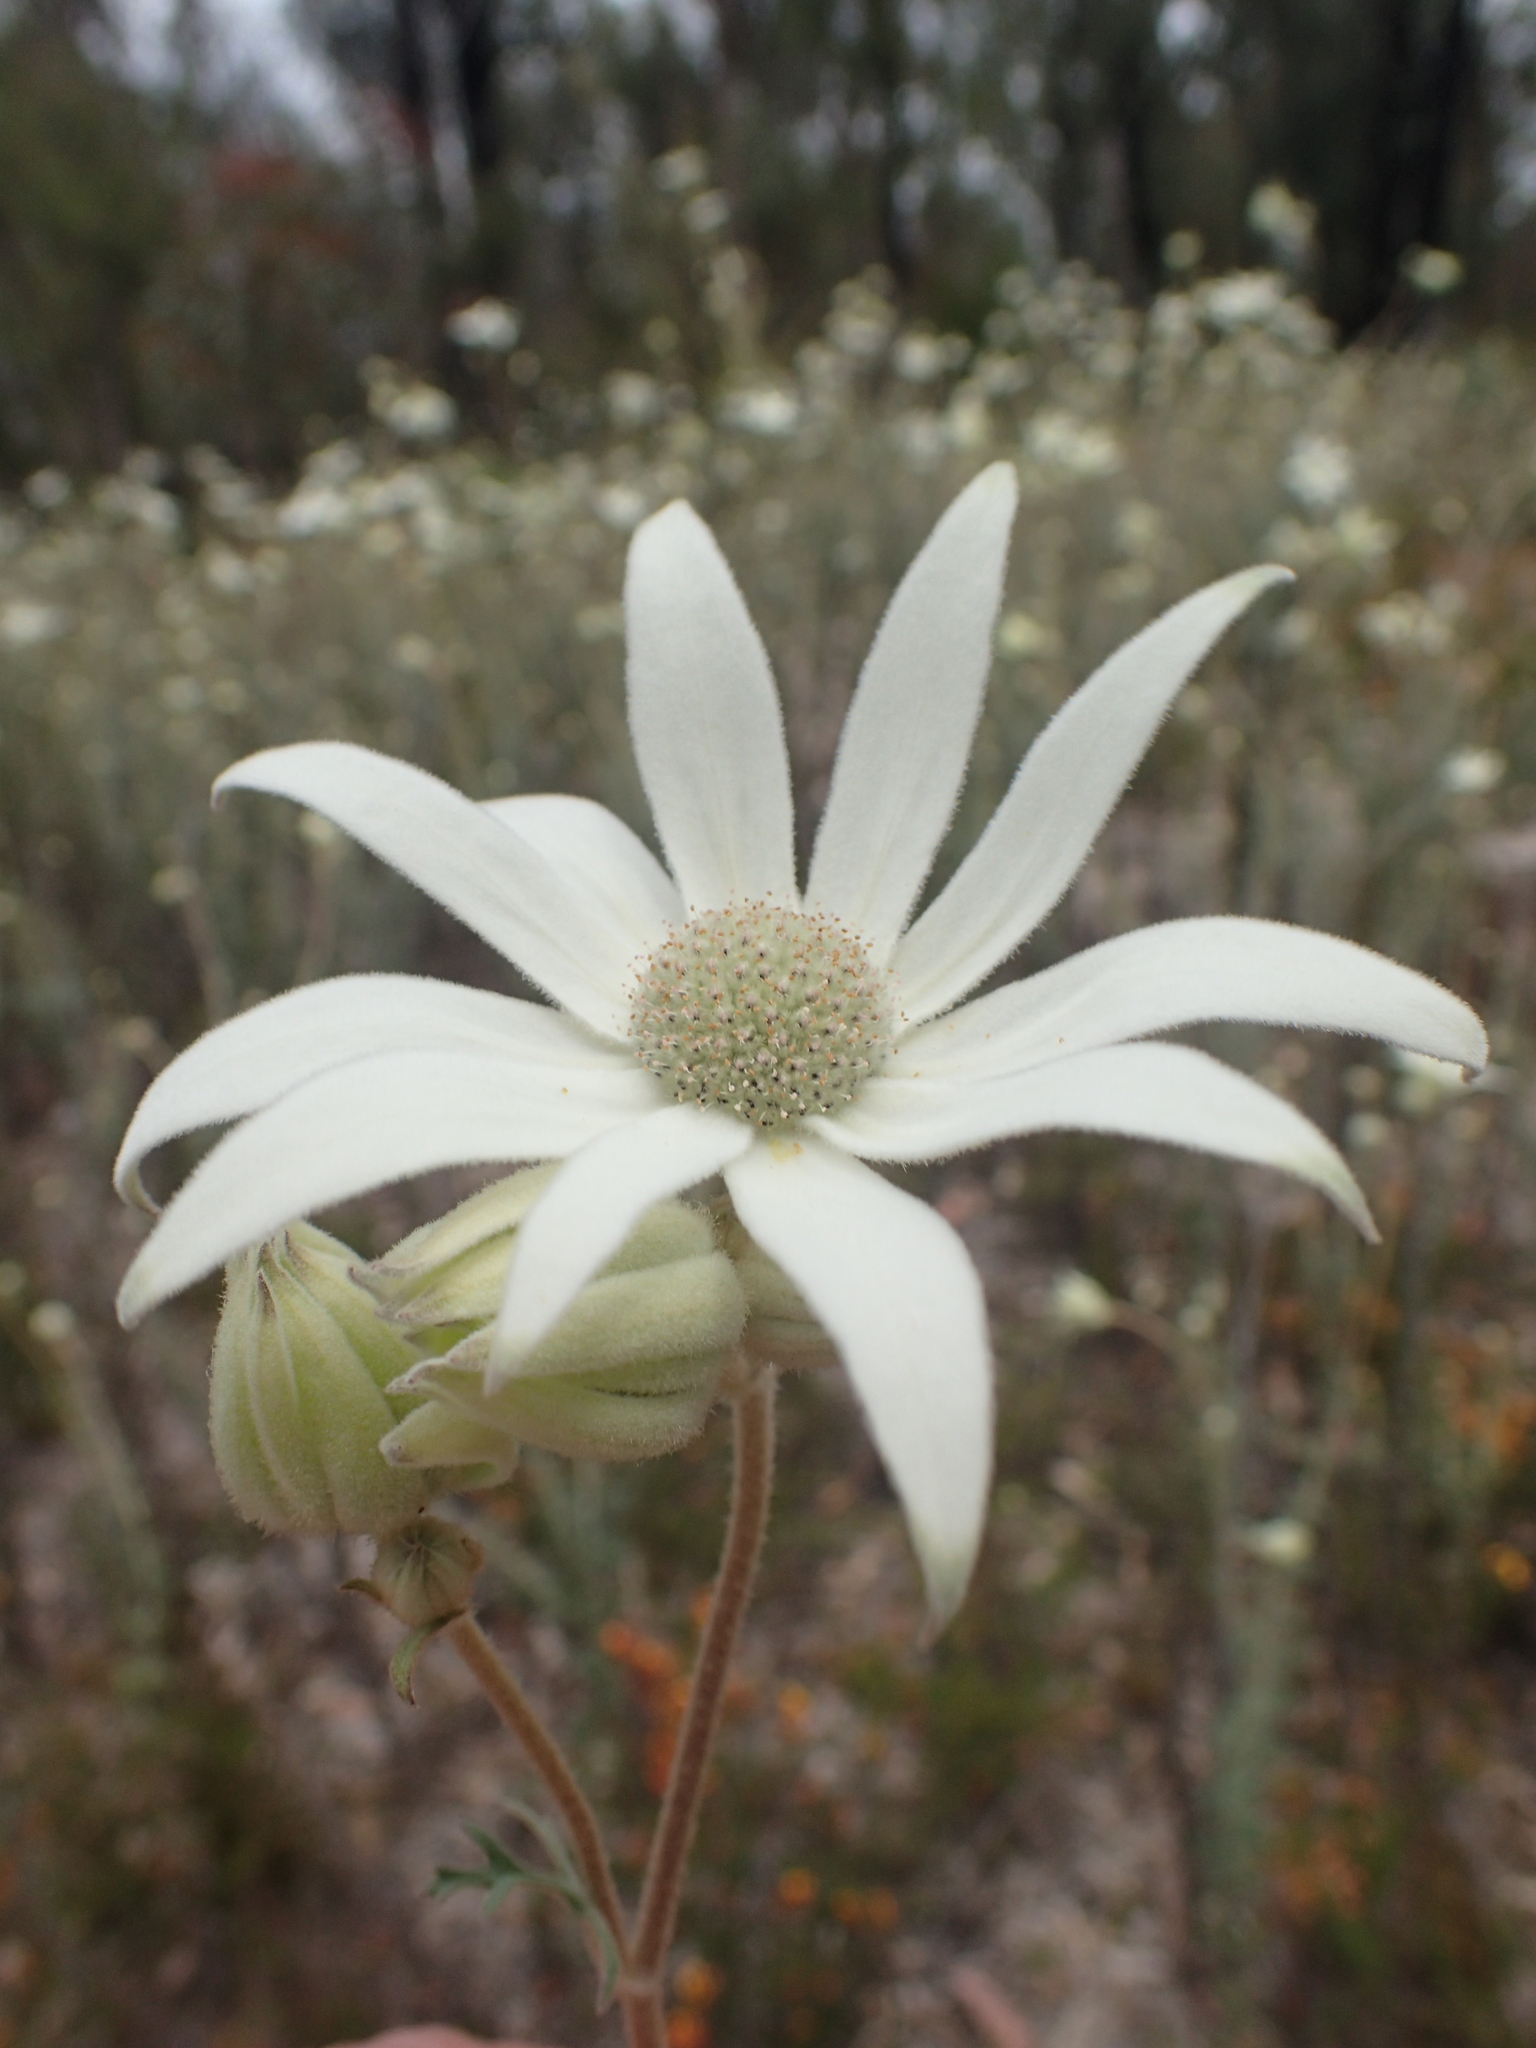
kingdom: Plantae
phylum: Tracheophyta
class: Magnoliopsida
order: Apiales
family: Apiaceae
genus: Actinotus
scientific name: Actinotus helianthi
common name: Flannel-flower
